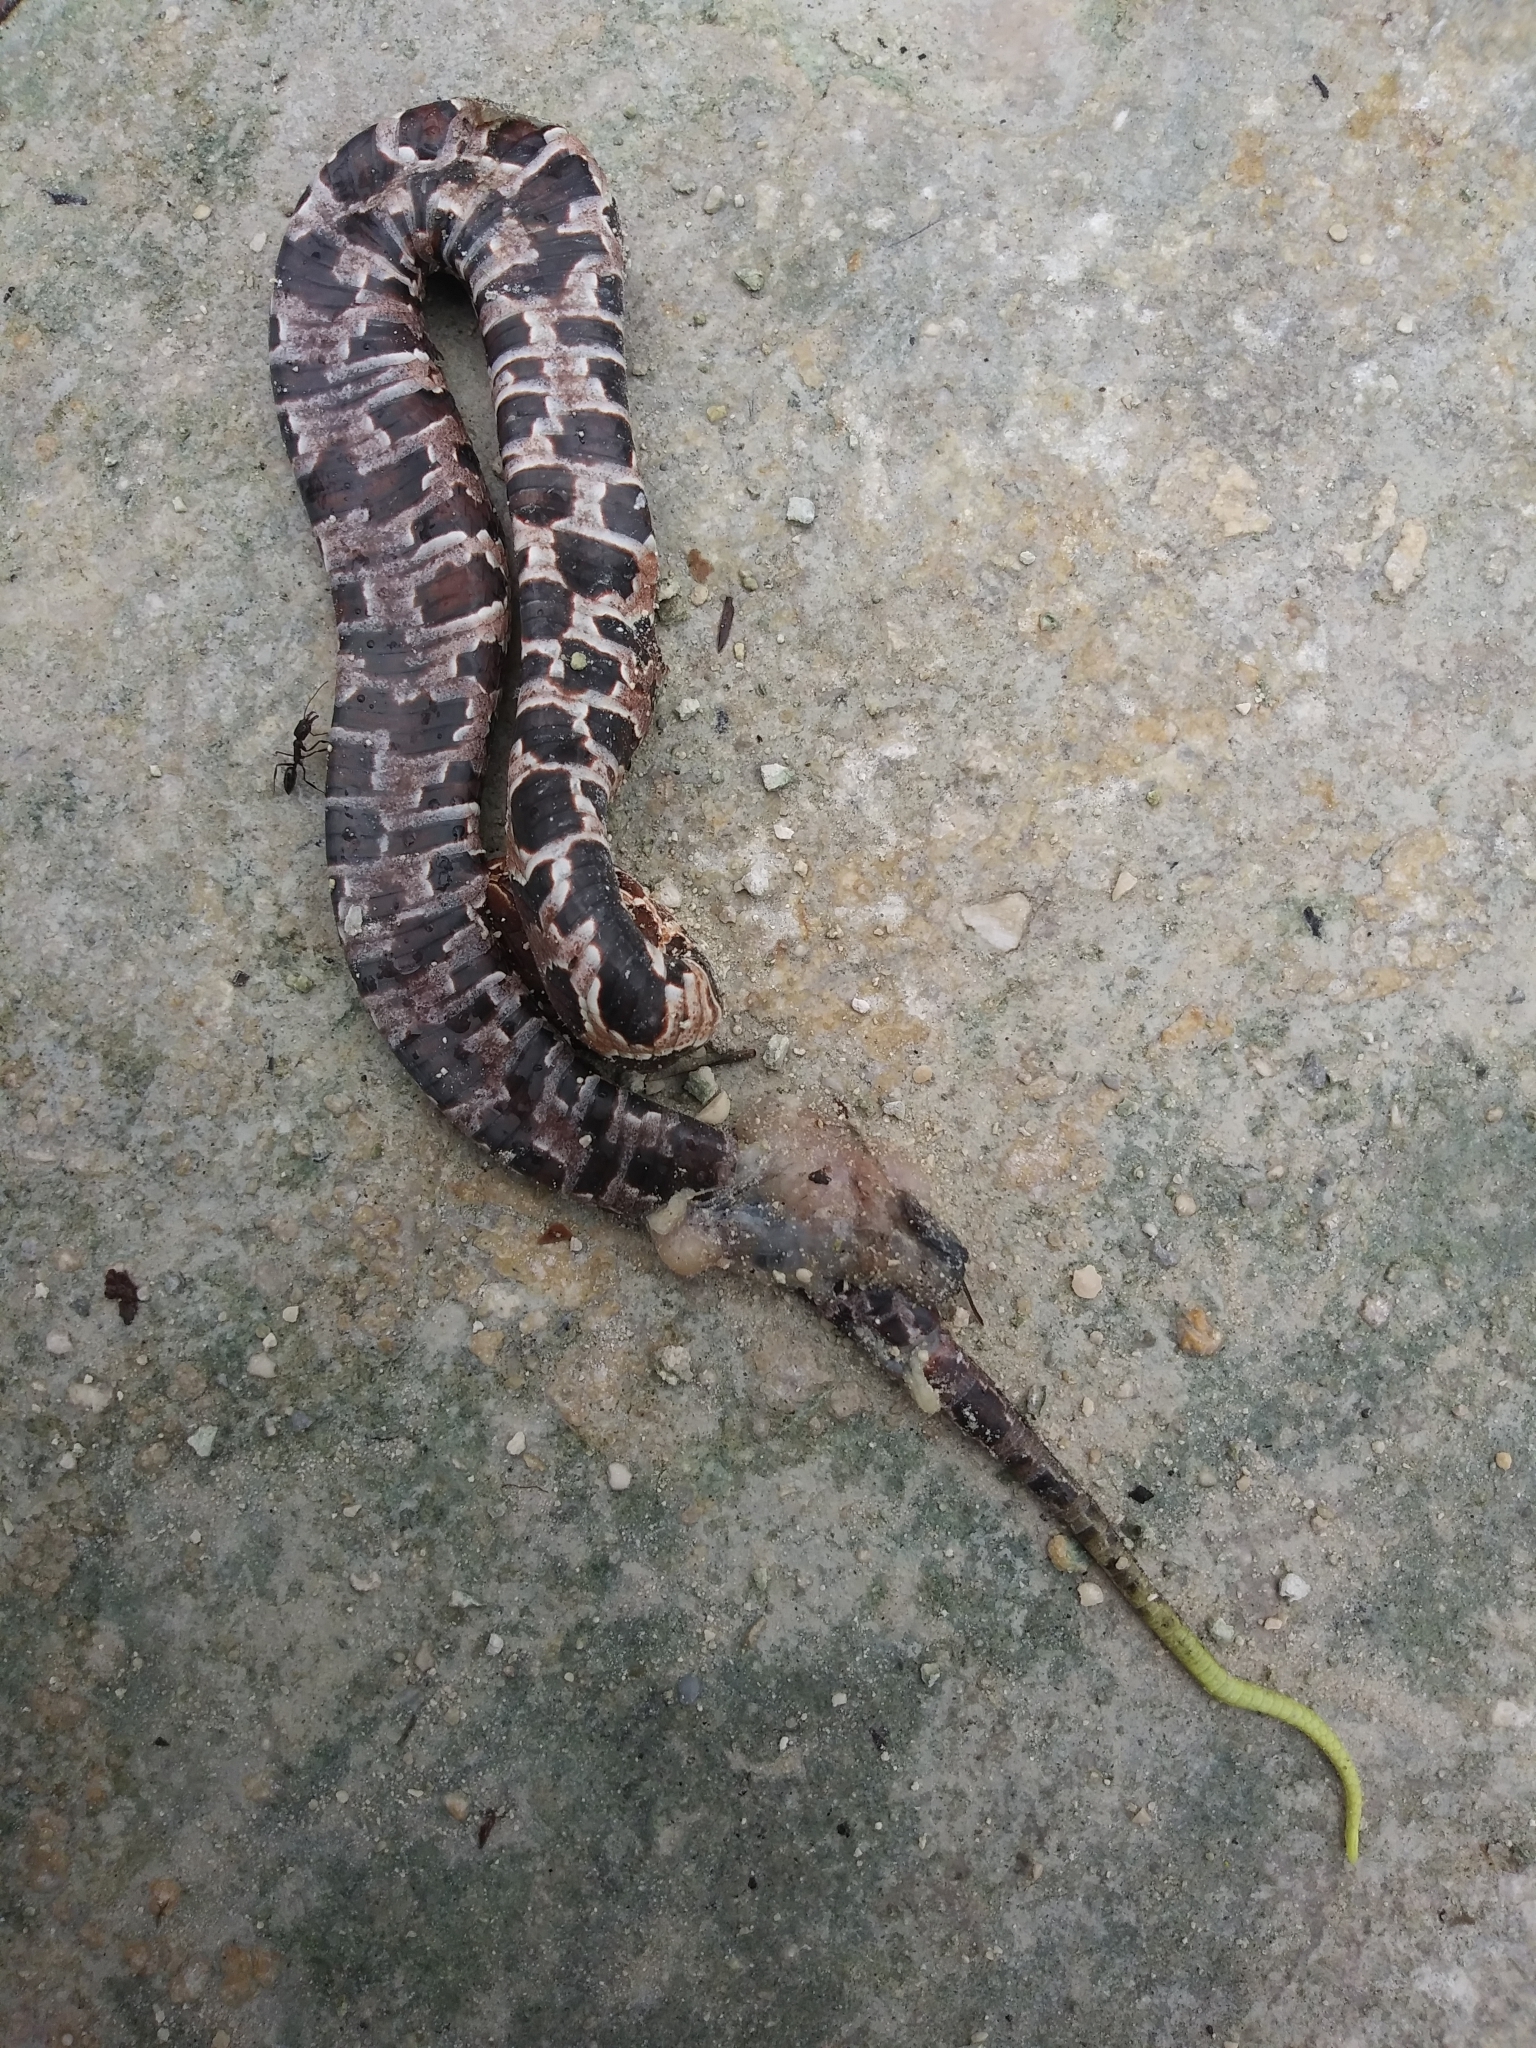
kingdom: Animalia
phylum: Chordata
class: Squamata
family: Viperidae
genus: Agkistrodon
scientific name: Agkistrodon conanti
